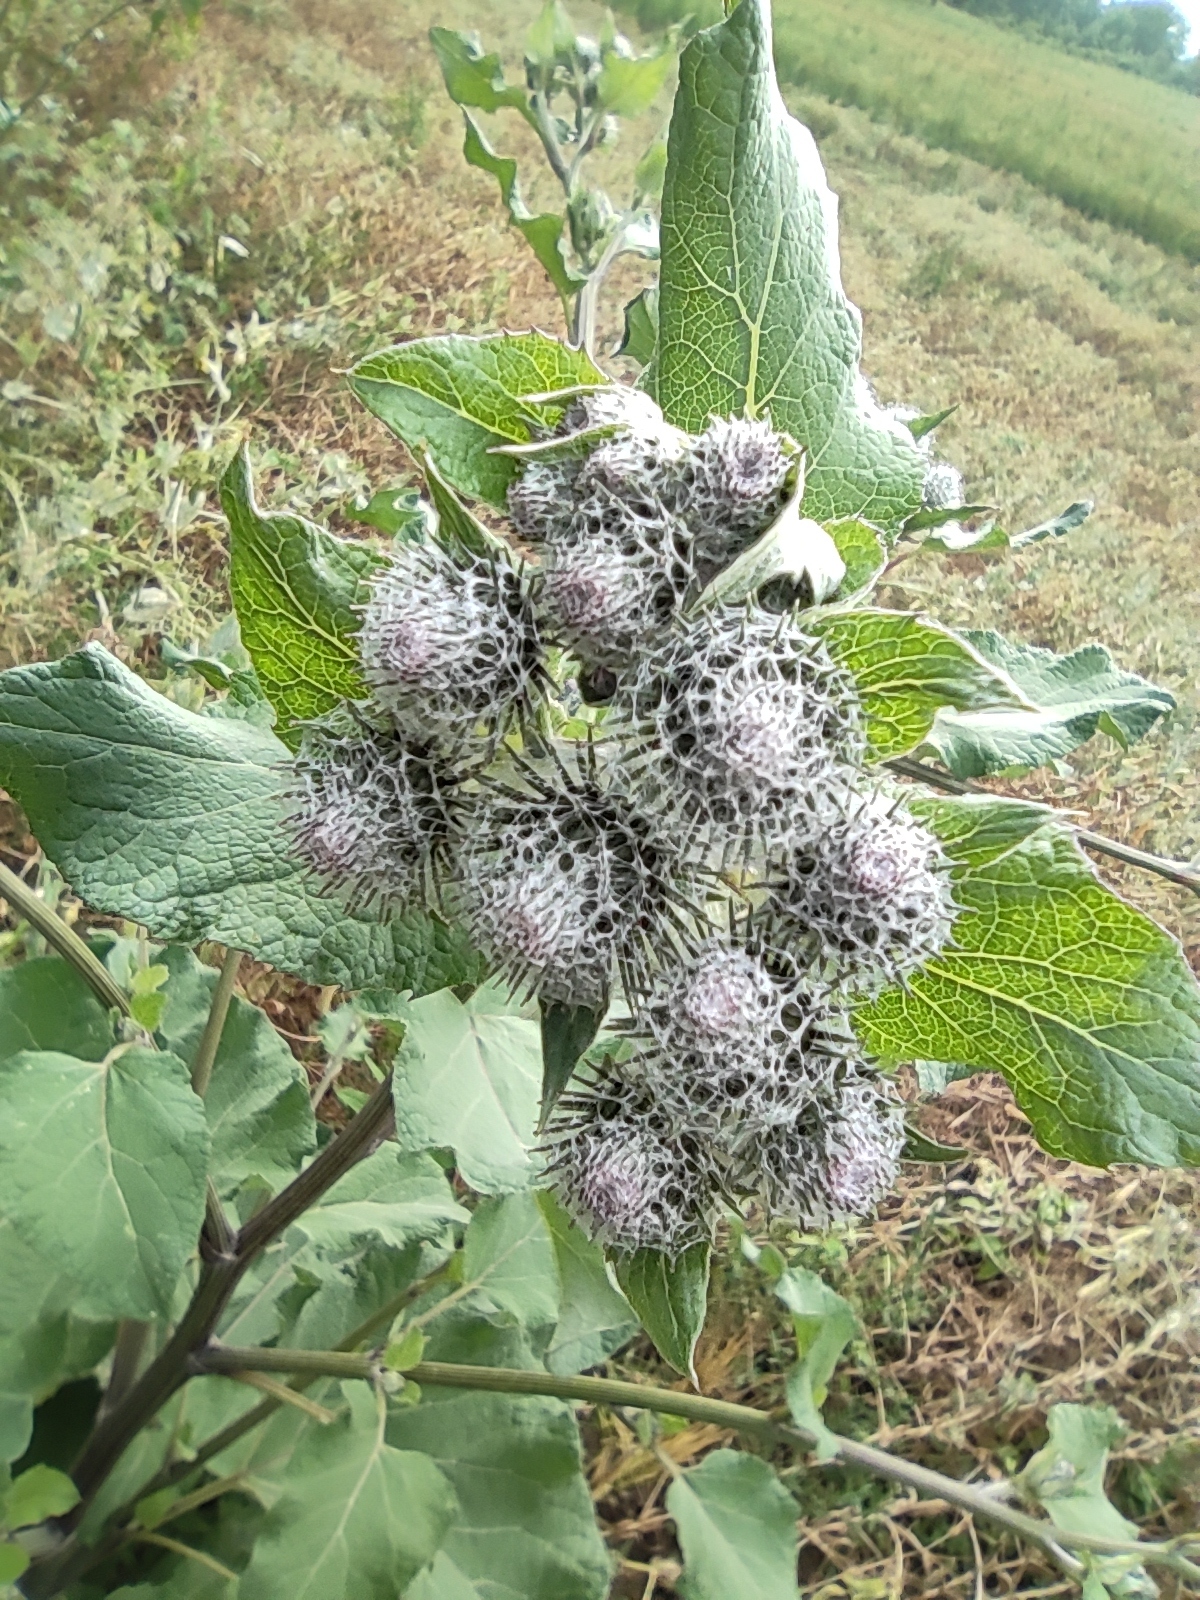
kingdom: Plantae
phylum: Tracheophyta
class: Magnoliopsida
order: Asterales
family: Asteraceae
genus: Arctium
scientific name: Arctium tomentosum
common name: Woolly burdock
